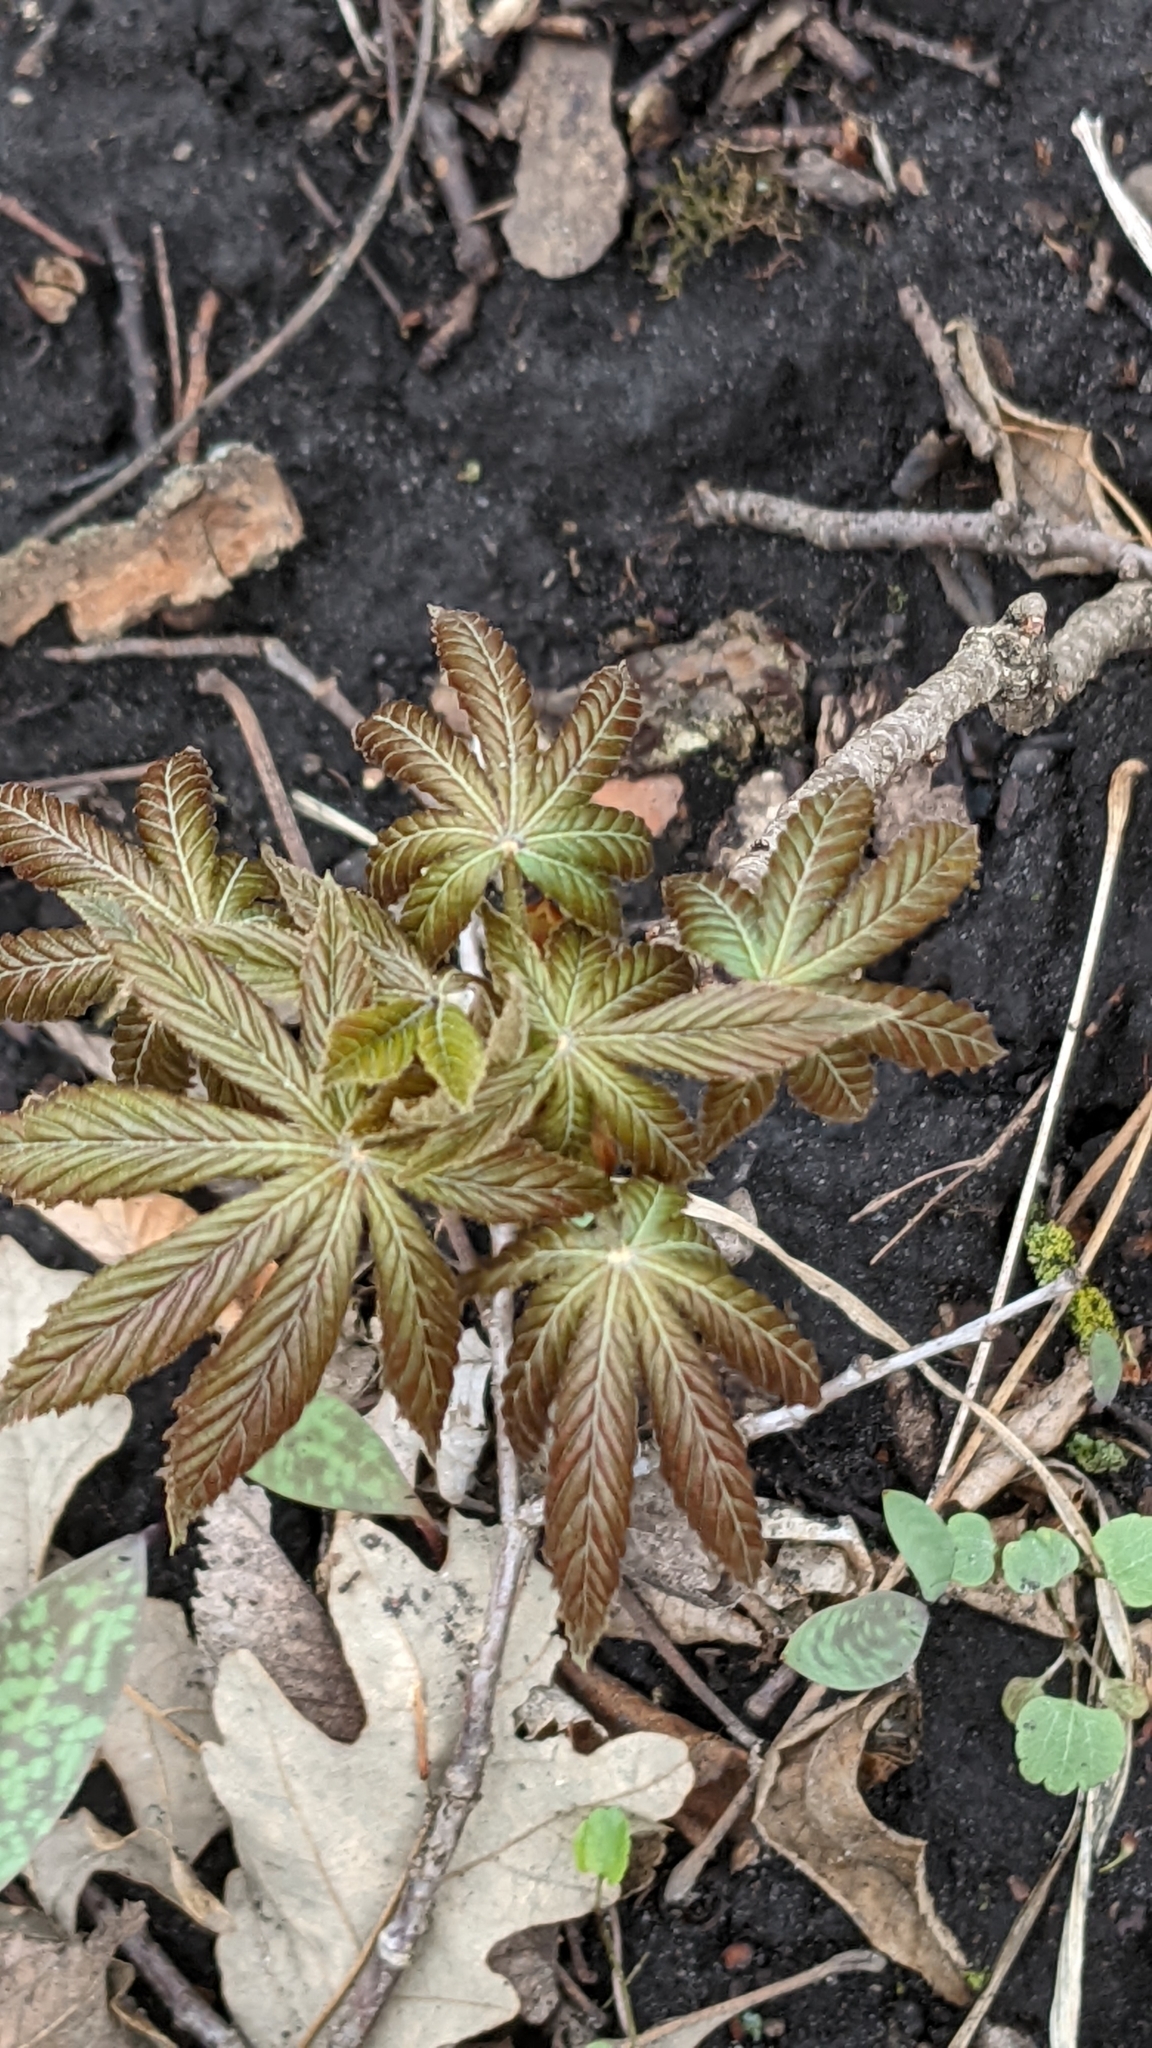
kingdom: Plantae
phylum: Tracheophyta
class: Magnoliopsida
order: Sapindales
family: Sapindaceae
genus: Aesculus
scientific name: Aesculus glabra
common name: Ohio buckeye
